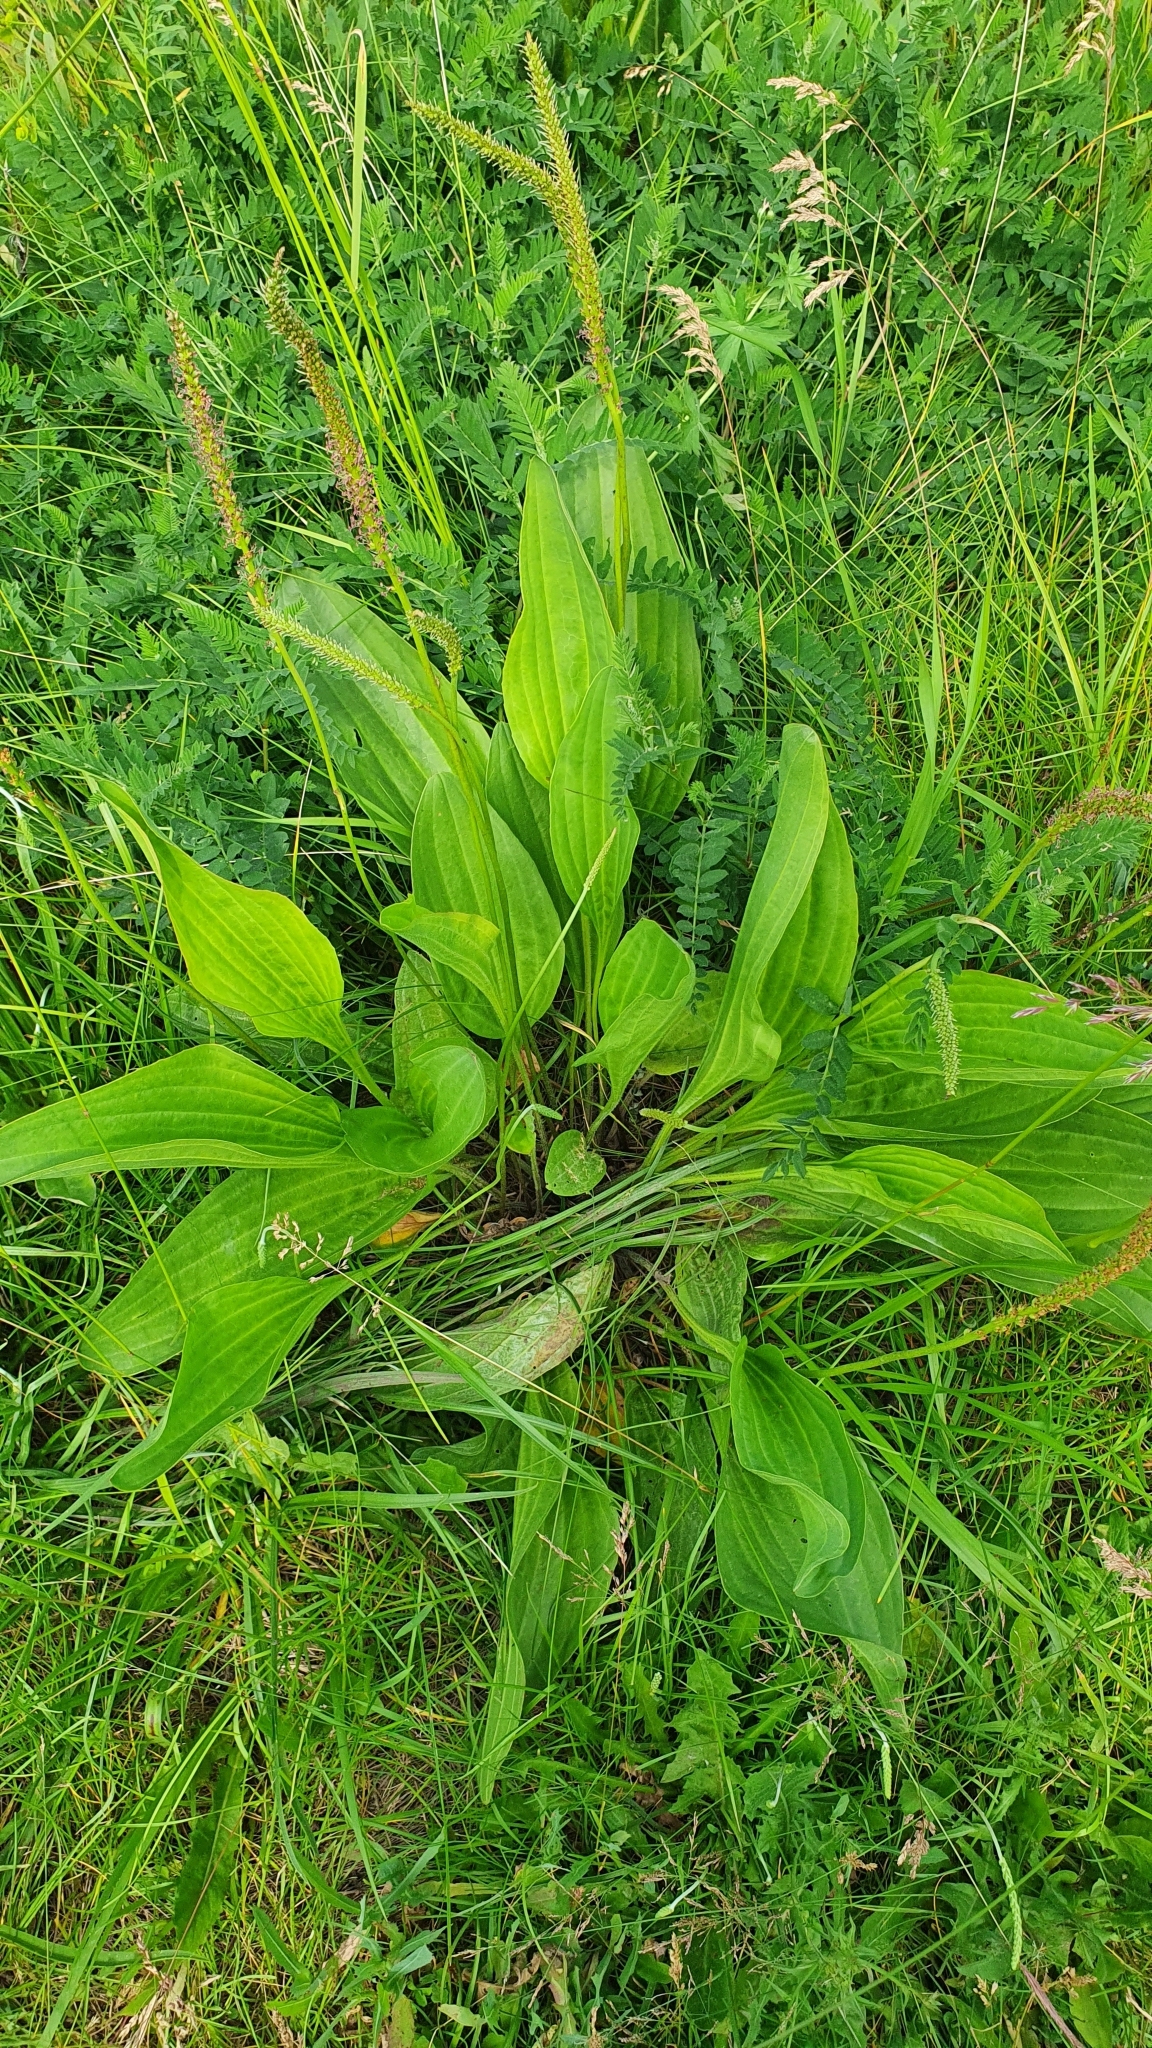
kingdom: Plantae
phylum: Tracheophyta
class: Magnoliopsida
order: Lamiales
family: Plantaginaceae
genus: Plantago
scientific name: Plantago cornuti
